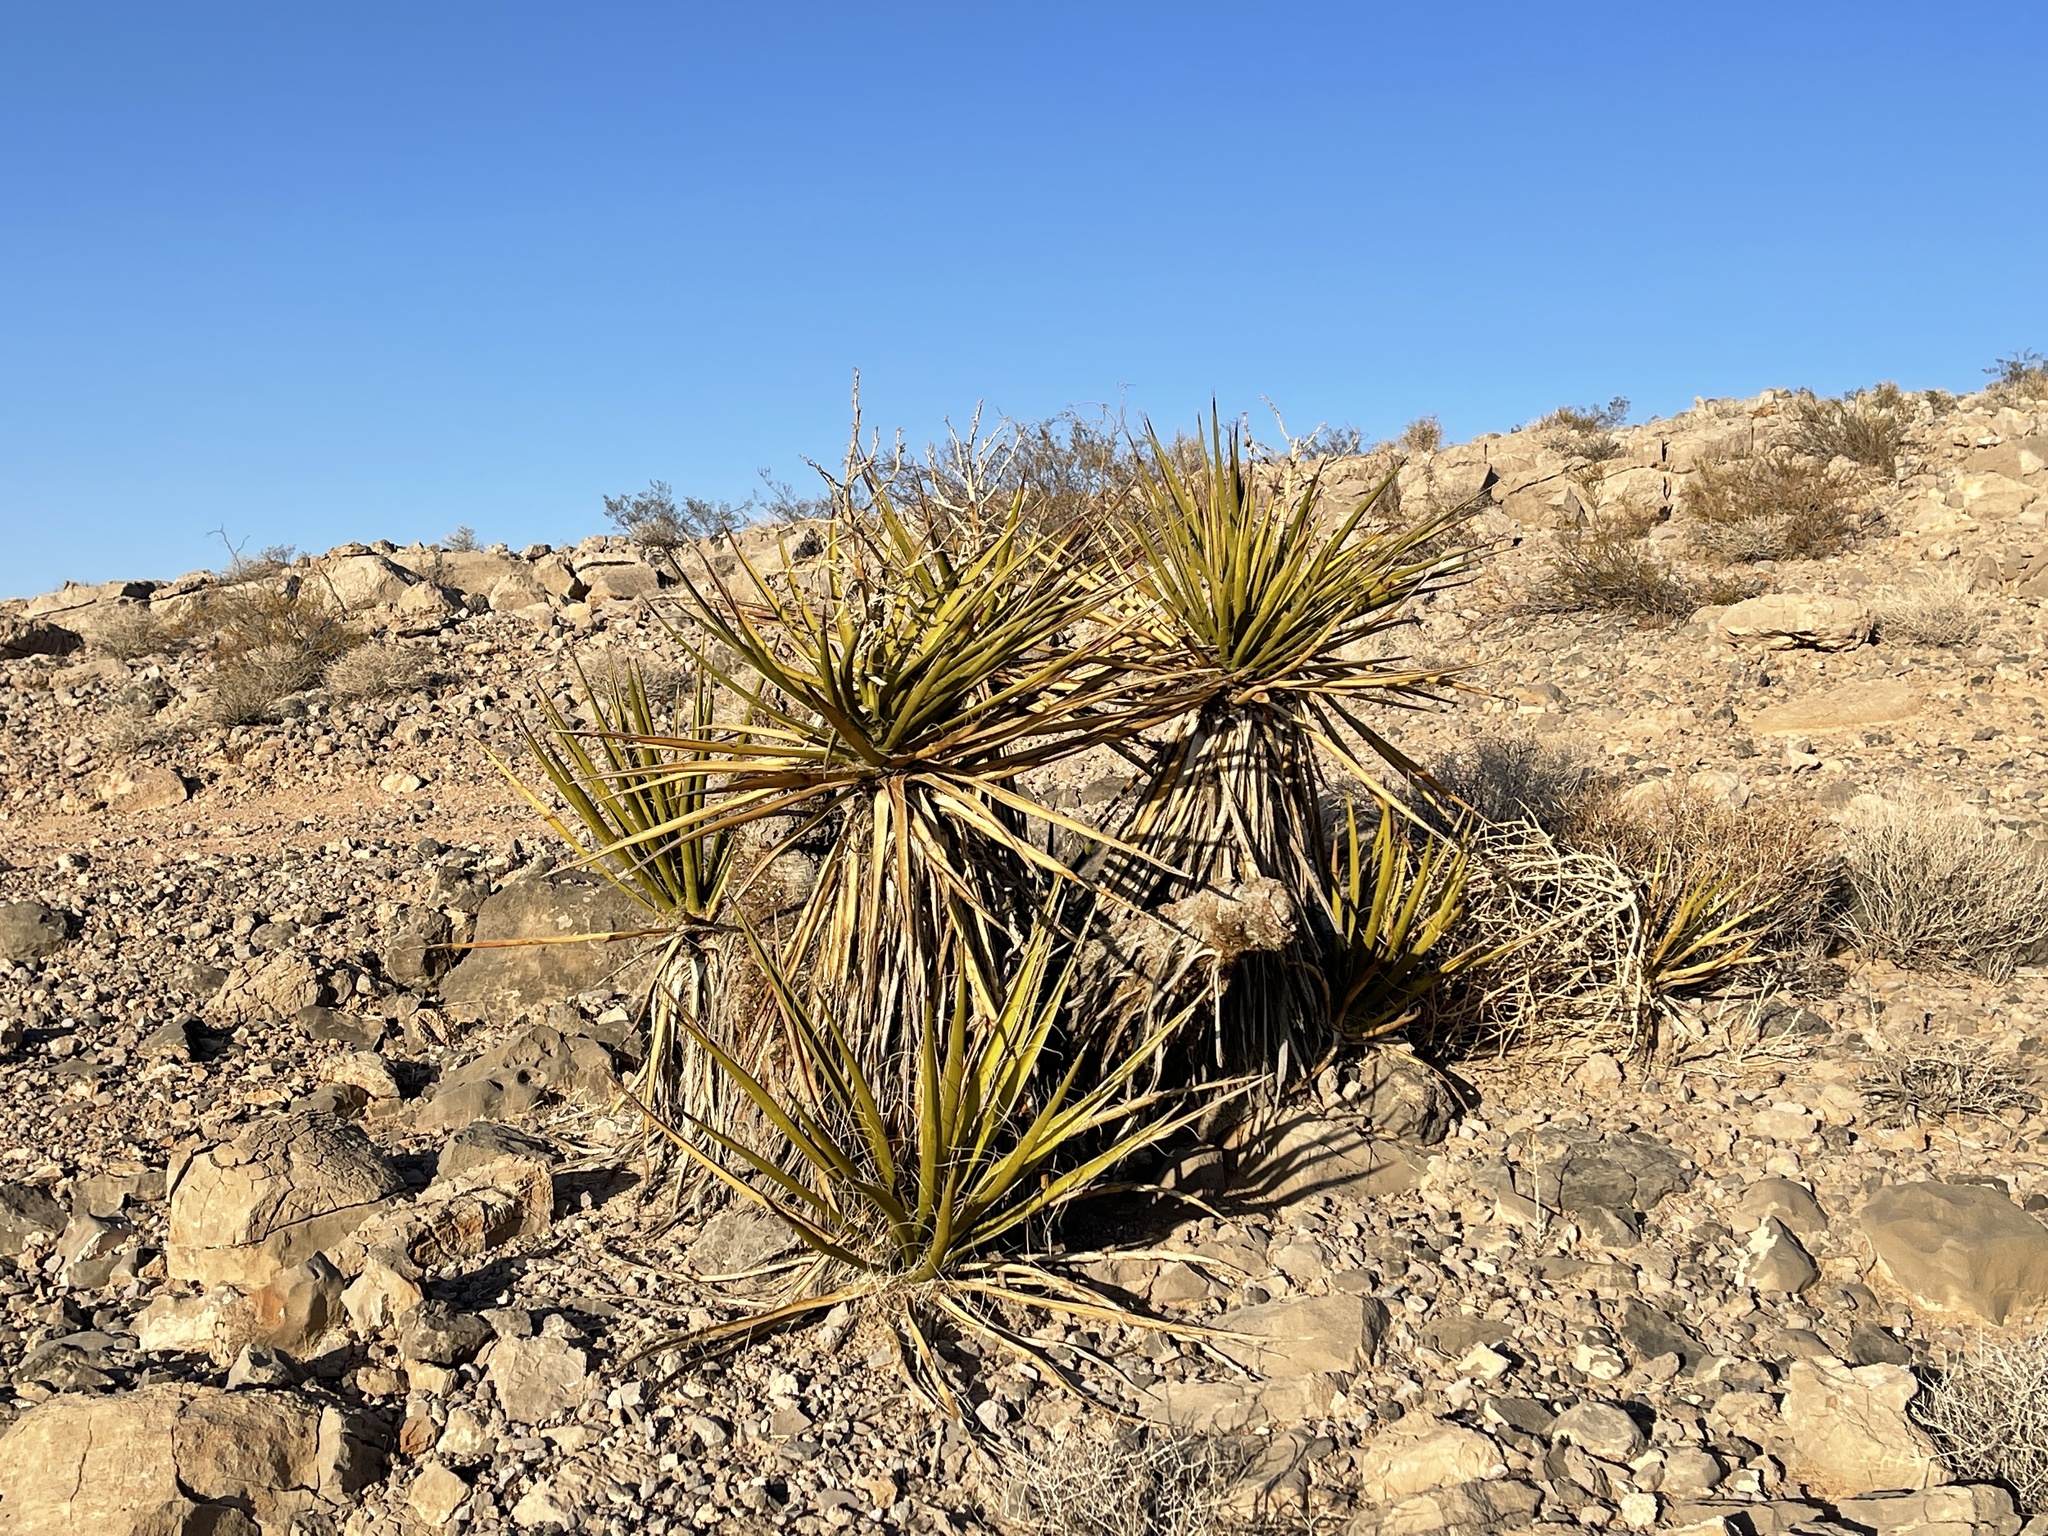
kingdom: Plantae
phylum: Tracheophyta
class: Liliopsida
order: Asparagales
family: Asparagaceae
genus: Yucca
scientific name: Yucca schidigera
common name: Mojave yucca
